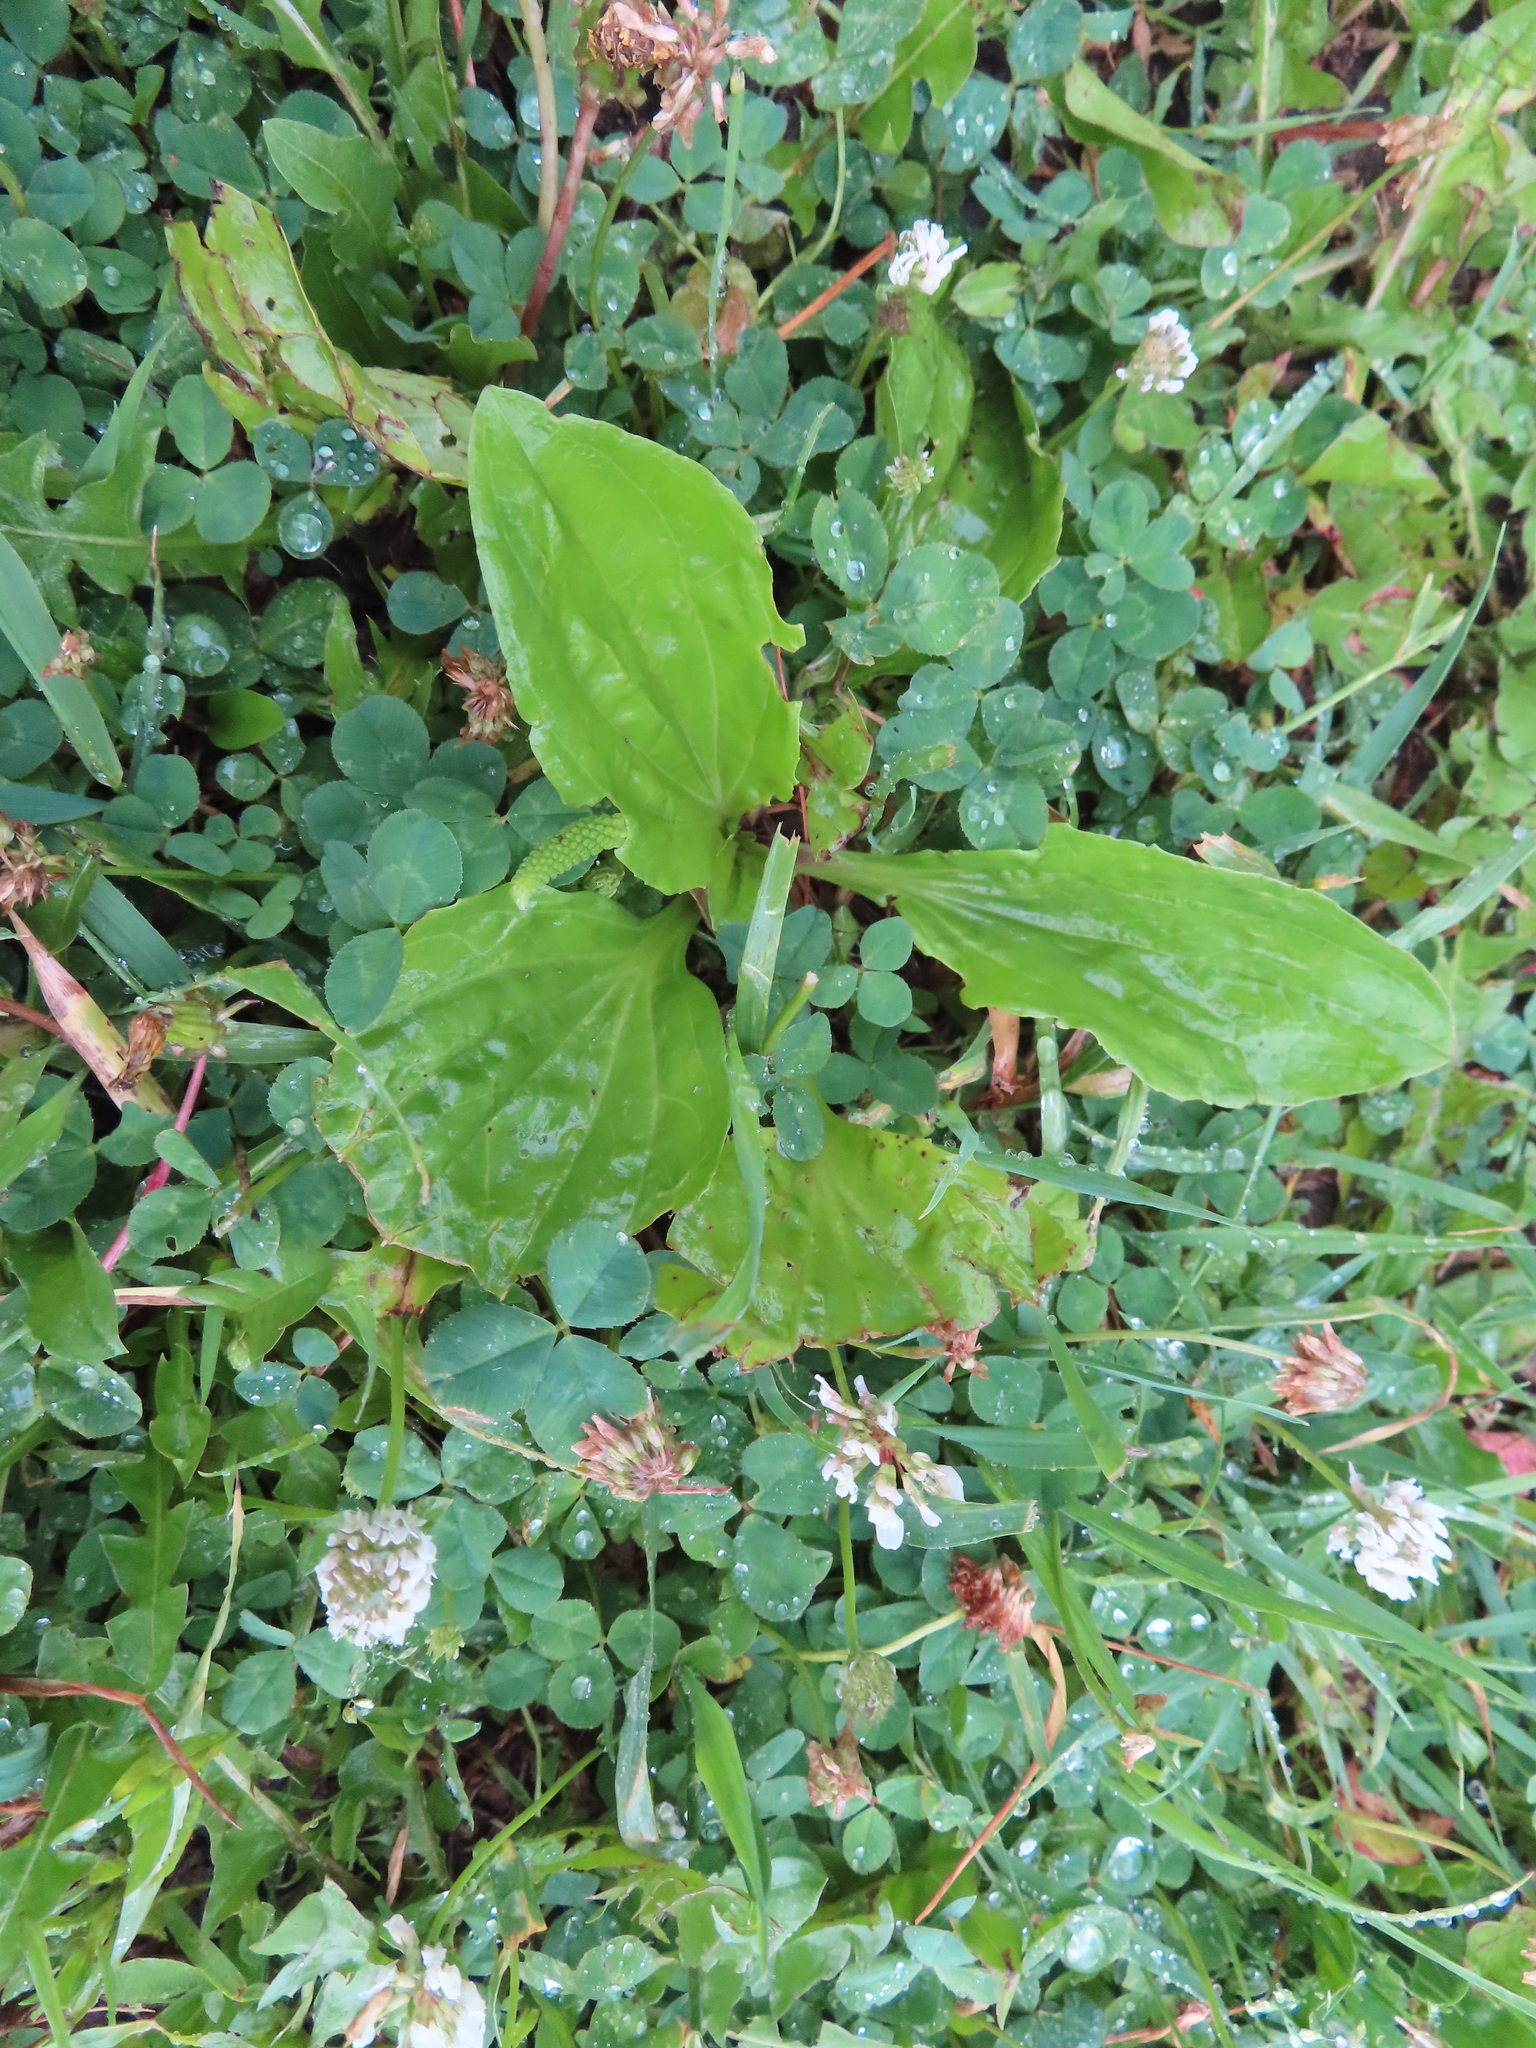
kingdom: Plantae
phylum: Tracheophyta
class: Magnoliopsida
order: Lamiales
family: Plantaginaceae
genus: Plantago
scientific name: Plantago rugelii
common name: American plantain
